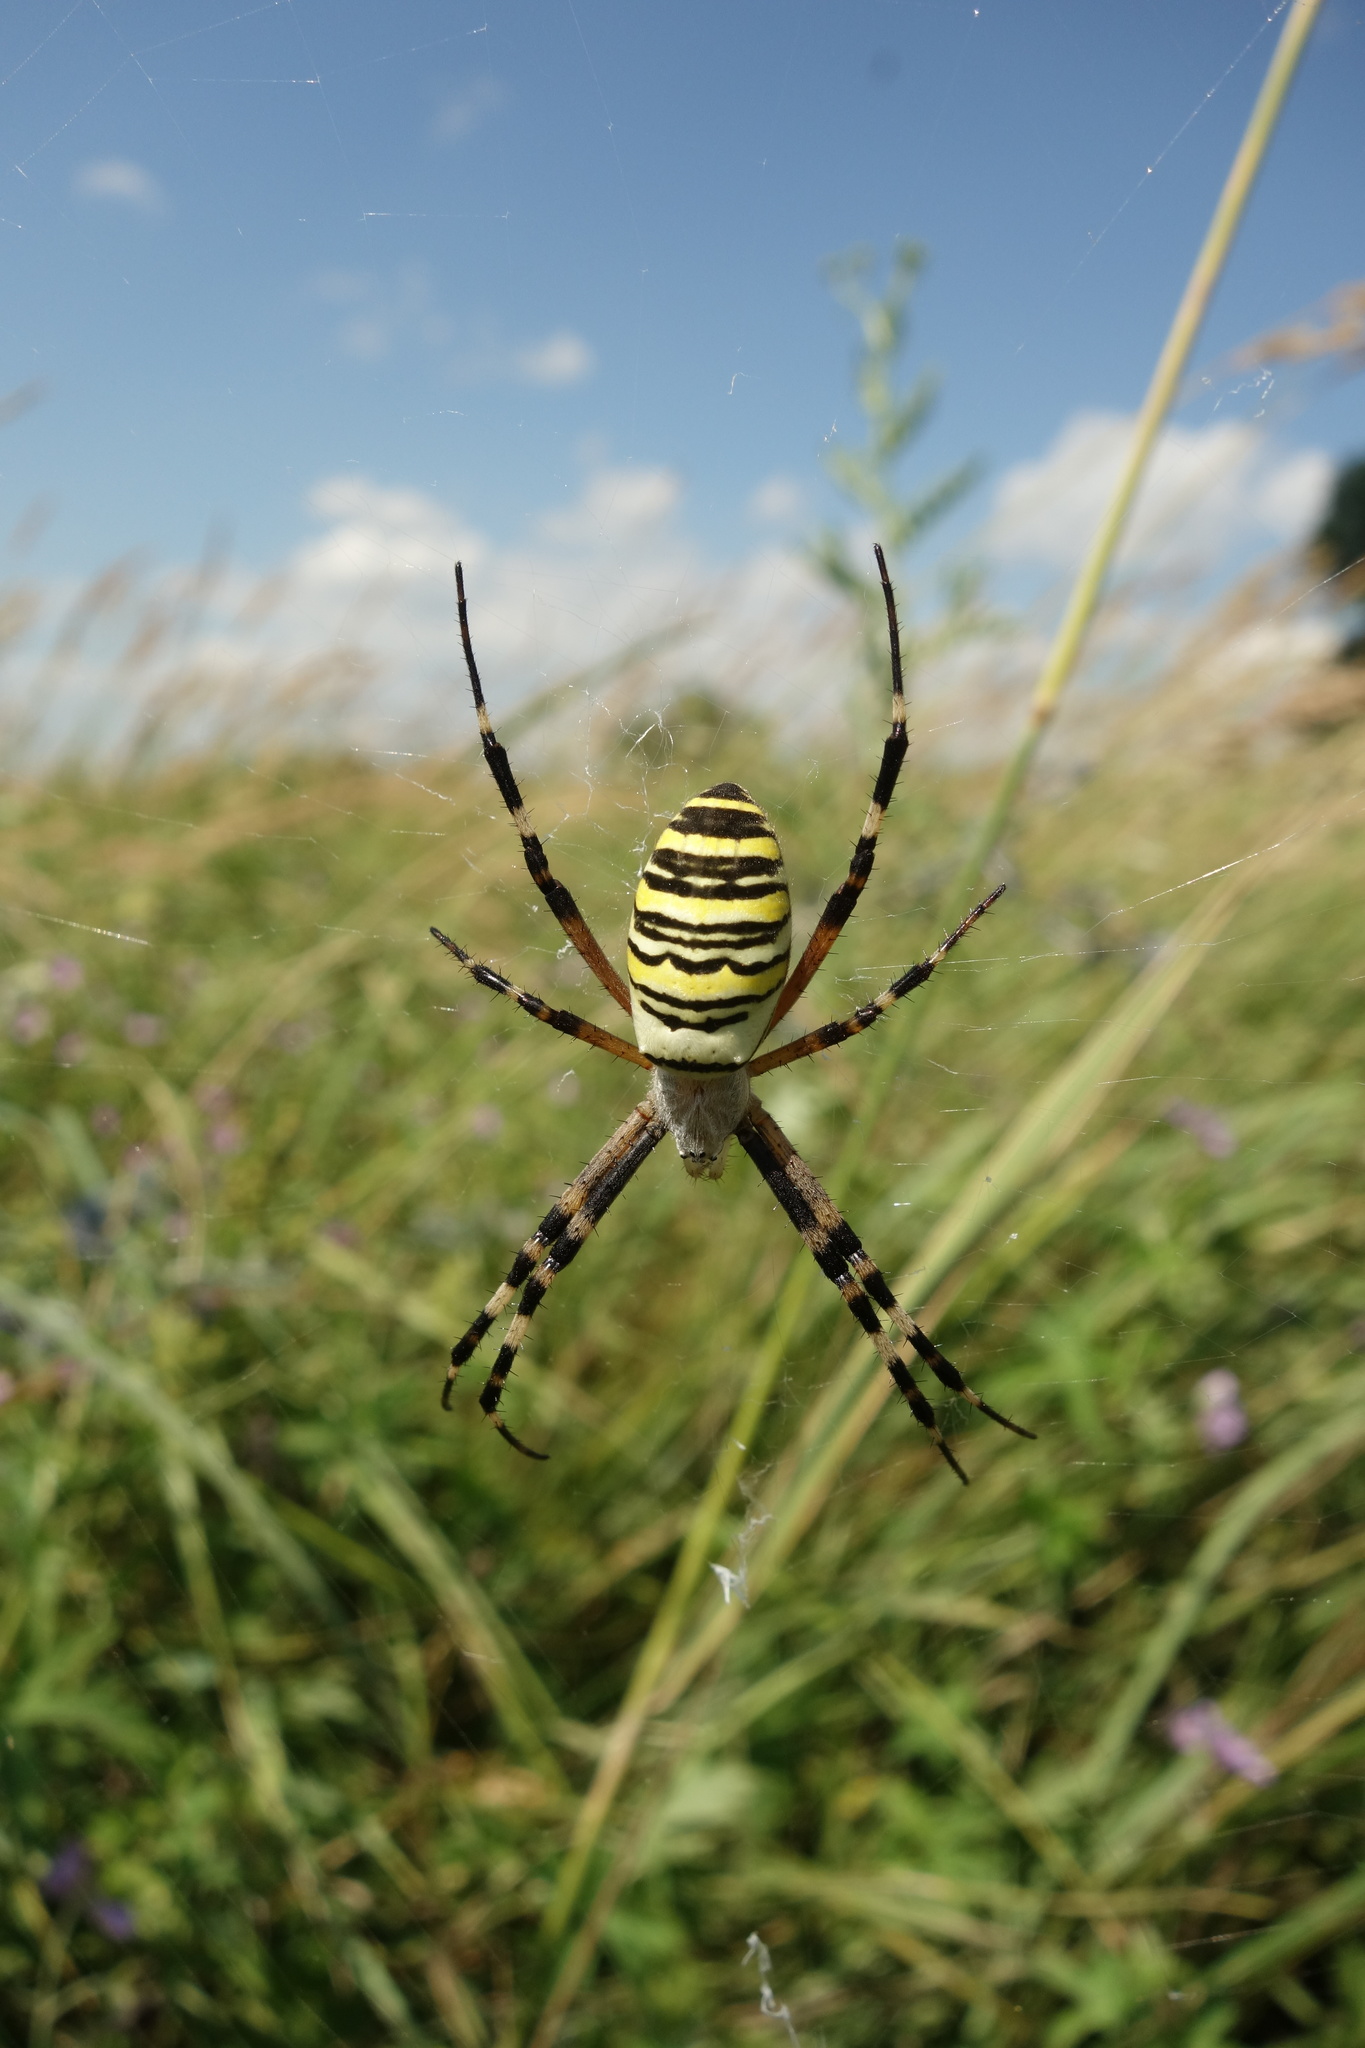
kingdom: Animalia
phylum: Arthropoda
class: Arachnida
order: Araneae
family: Araneidae
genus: Argiope
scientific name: Argiope bruennichi
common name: Wasp spider
